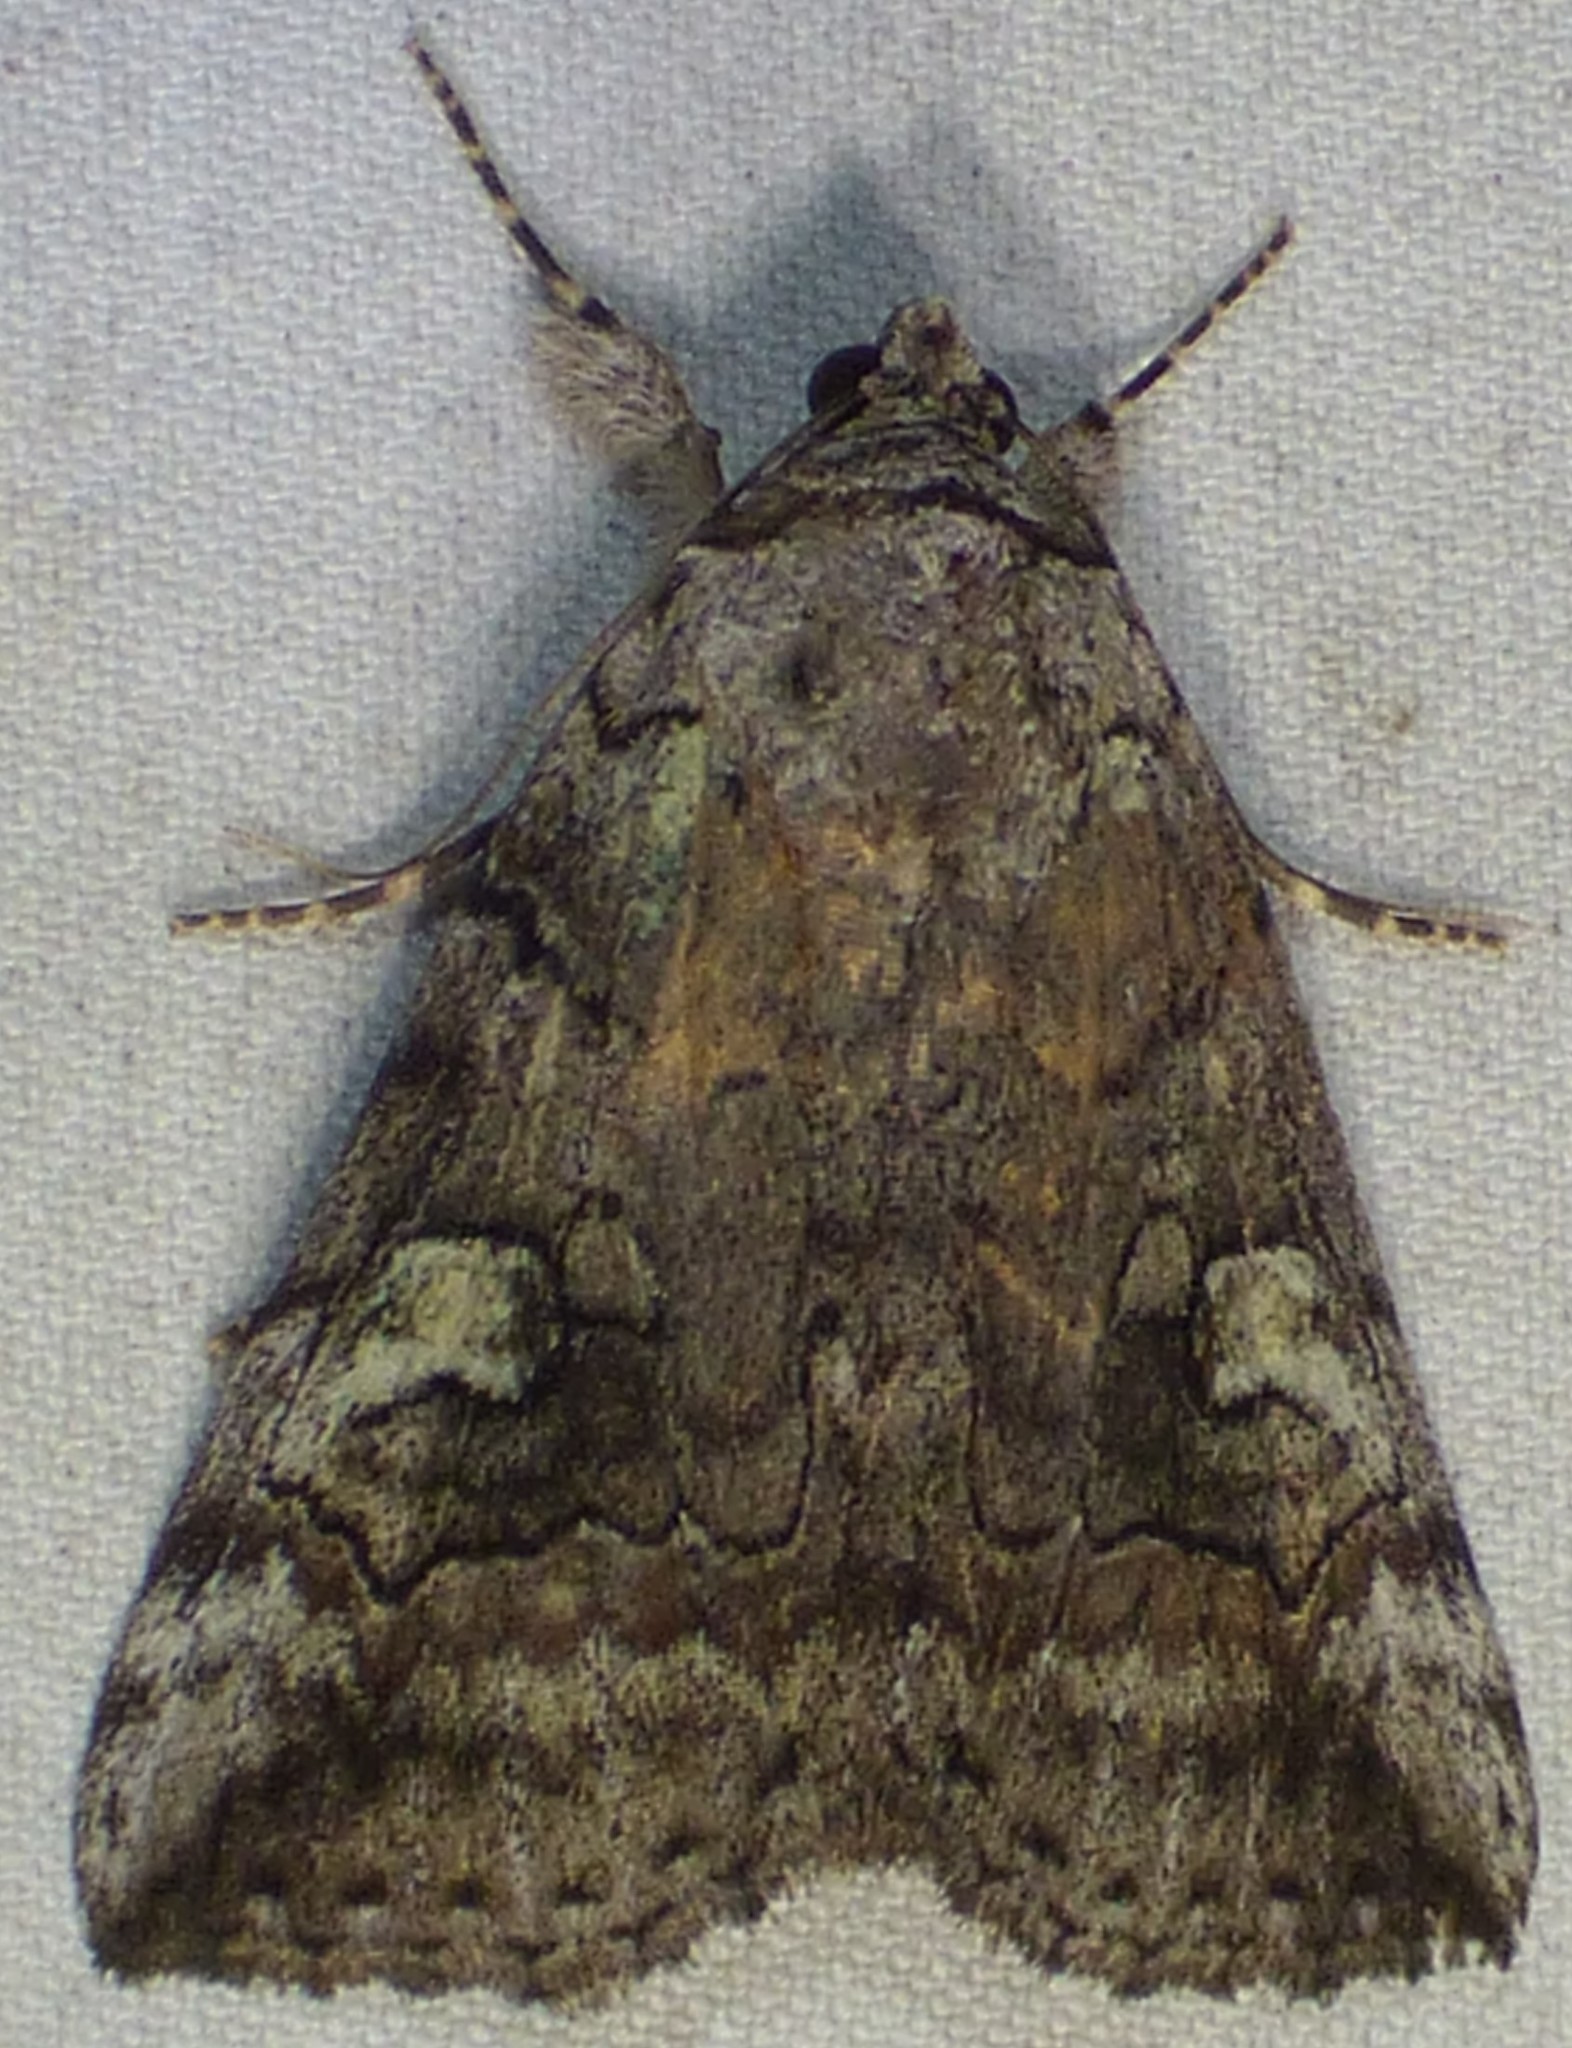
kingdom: Animalia
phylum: Arthropoda
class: Insecta
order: Lepidoptera
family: Erebidae
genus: Catocala
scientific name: Catocala similis
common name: Similar underwing
